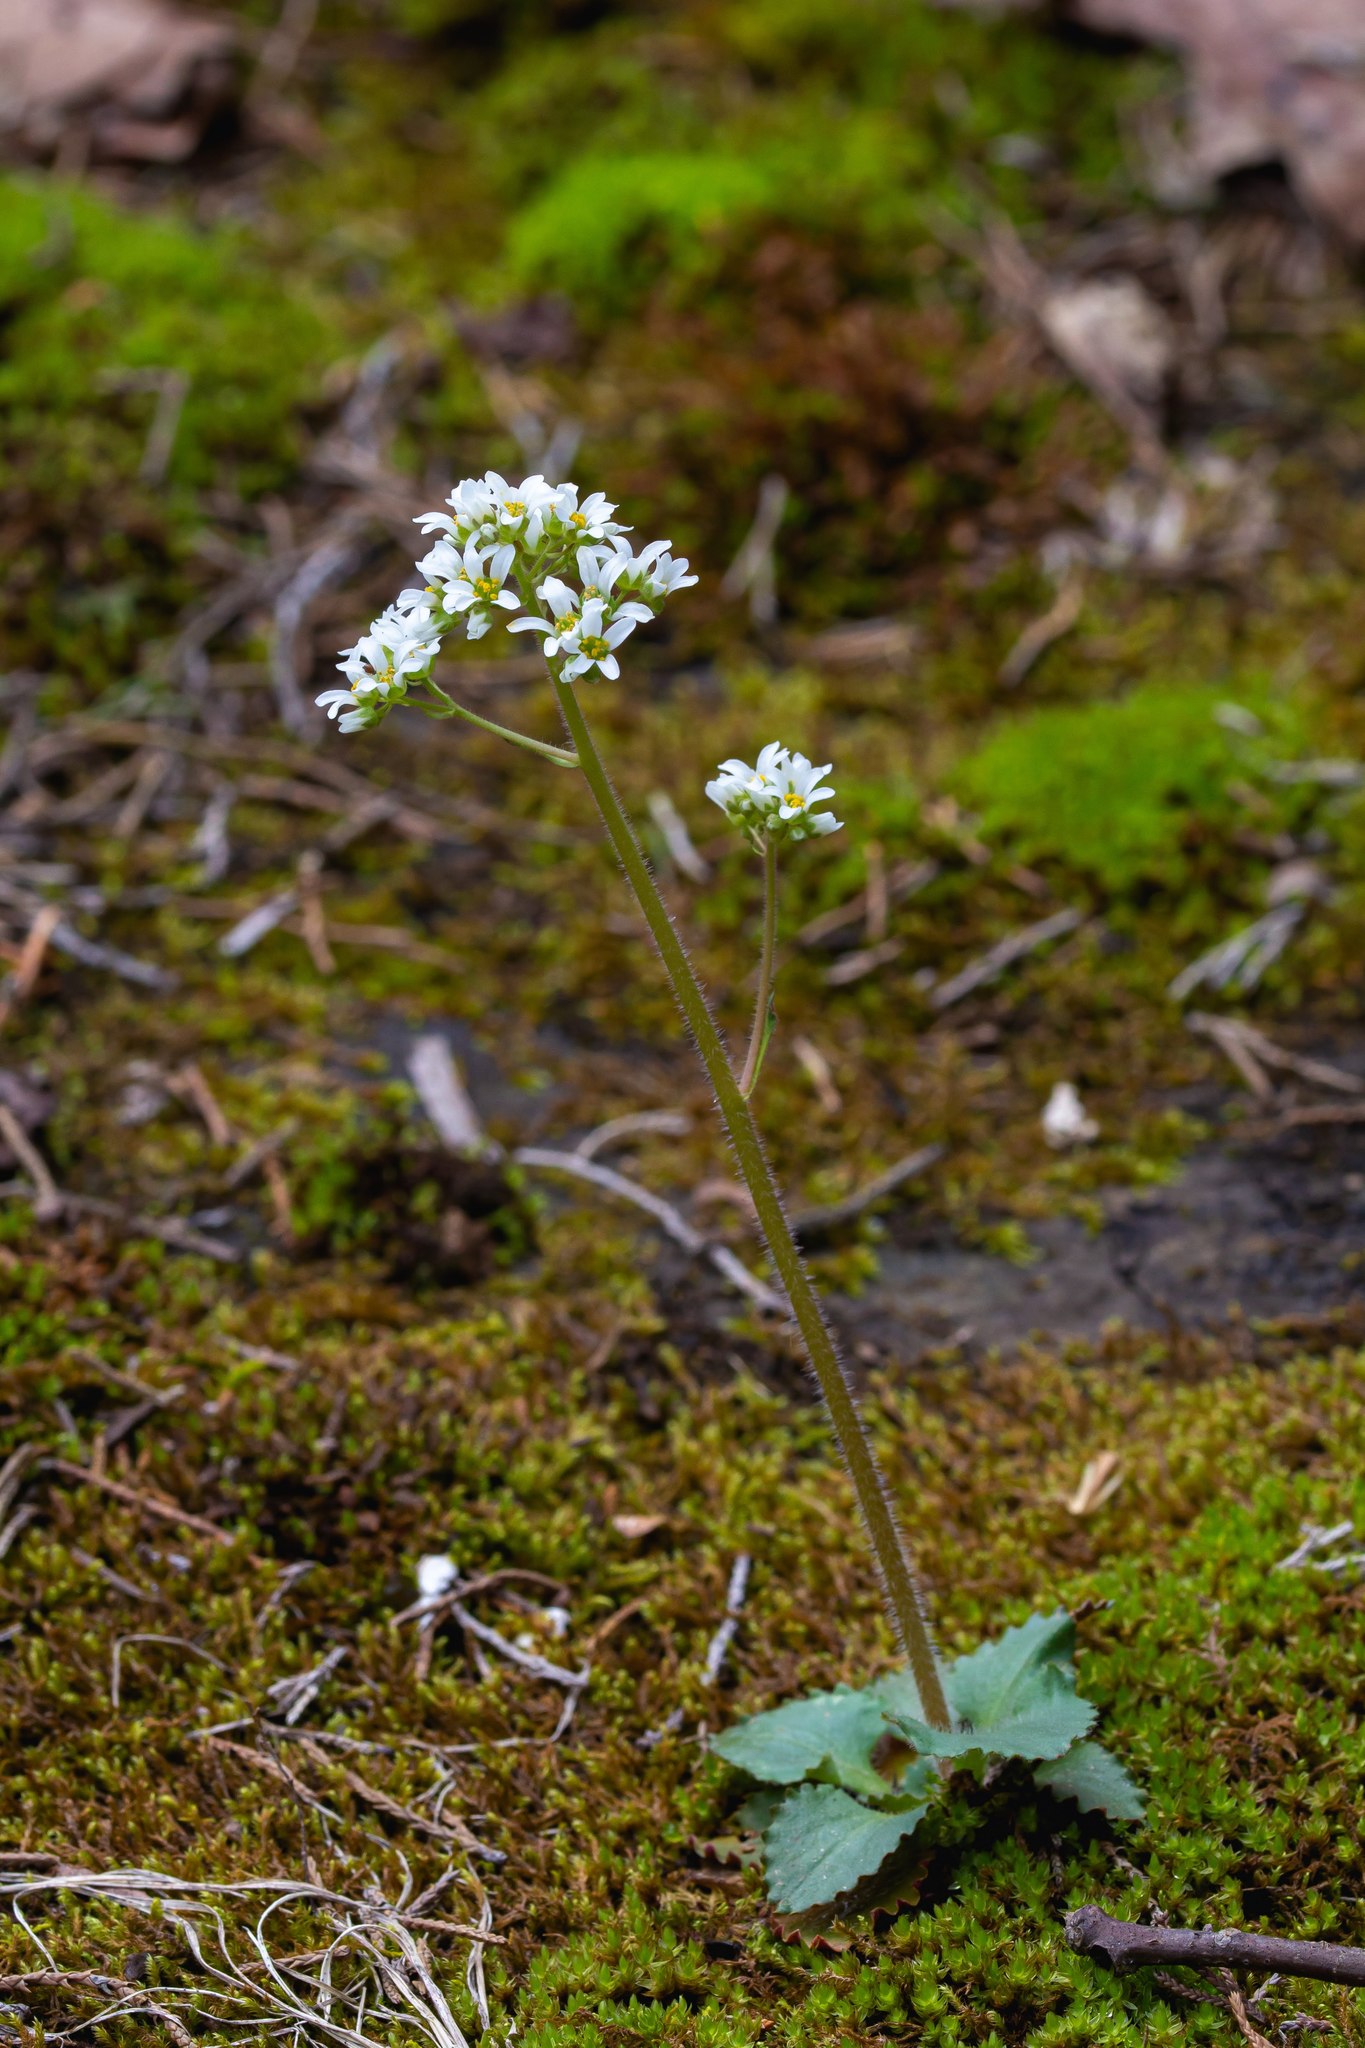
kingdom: Plantae
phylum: Tracheophyta
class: Magnoliopsida
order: Saxifragales
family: Saxifragaceae
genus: Micranthes
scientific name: Micranthes virginiensis
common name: Early saxifrage
